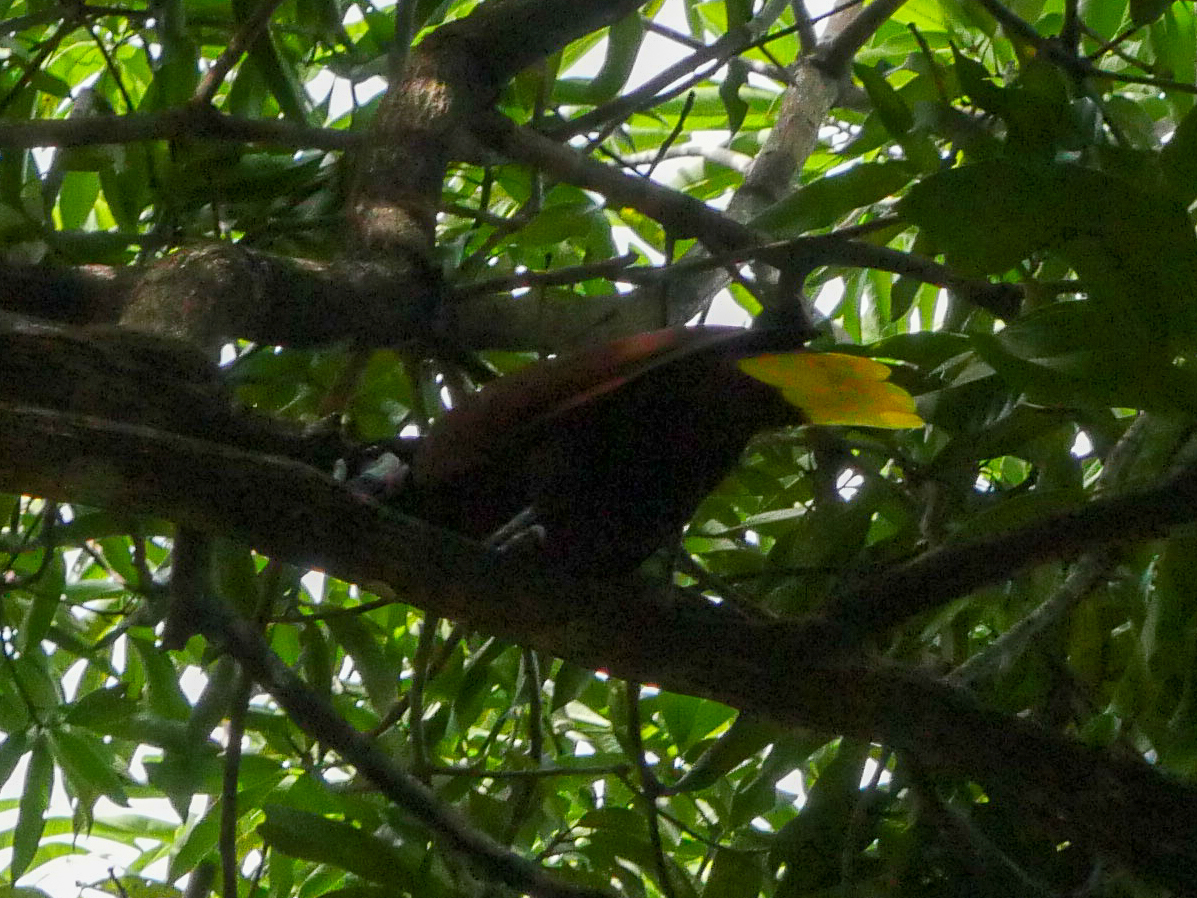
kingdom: Animalia
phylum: Chordata
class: Aves
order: Passeriformes
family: Icteridae
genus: Psarocolius
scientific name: Psarocolius montezuma
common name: Montezuma oropendola
